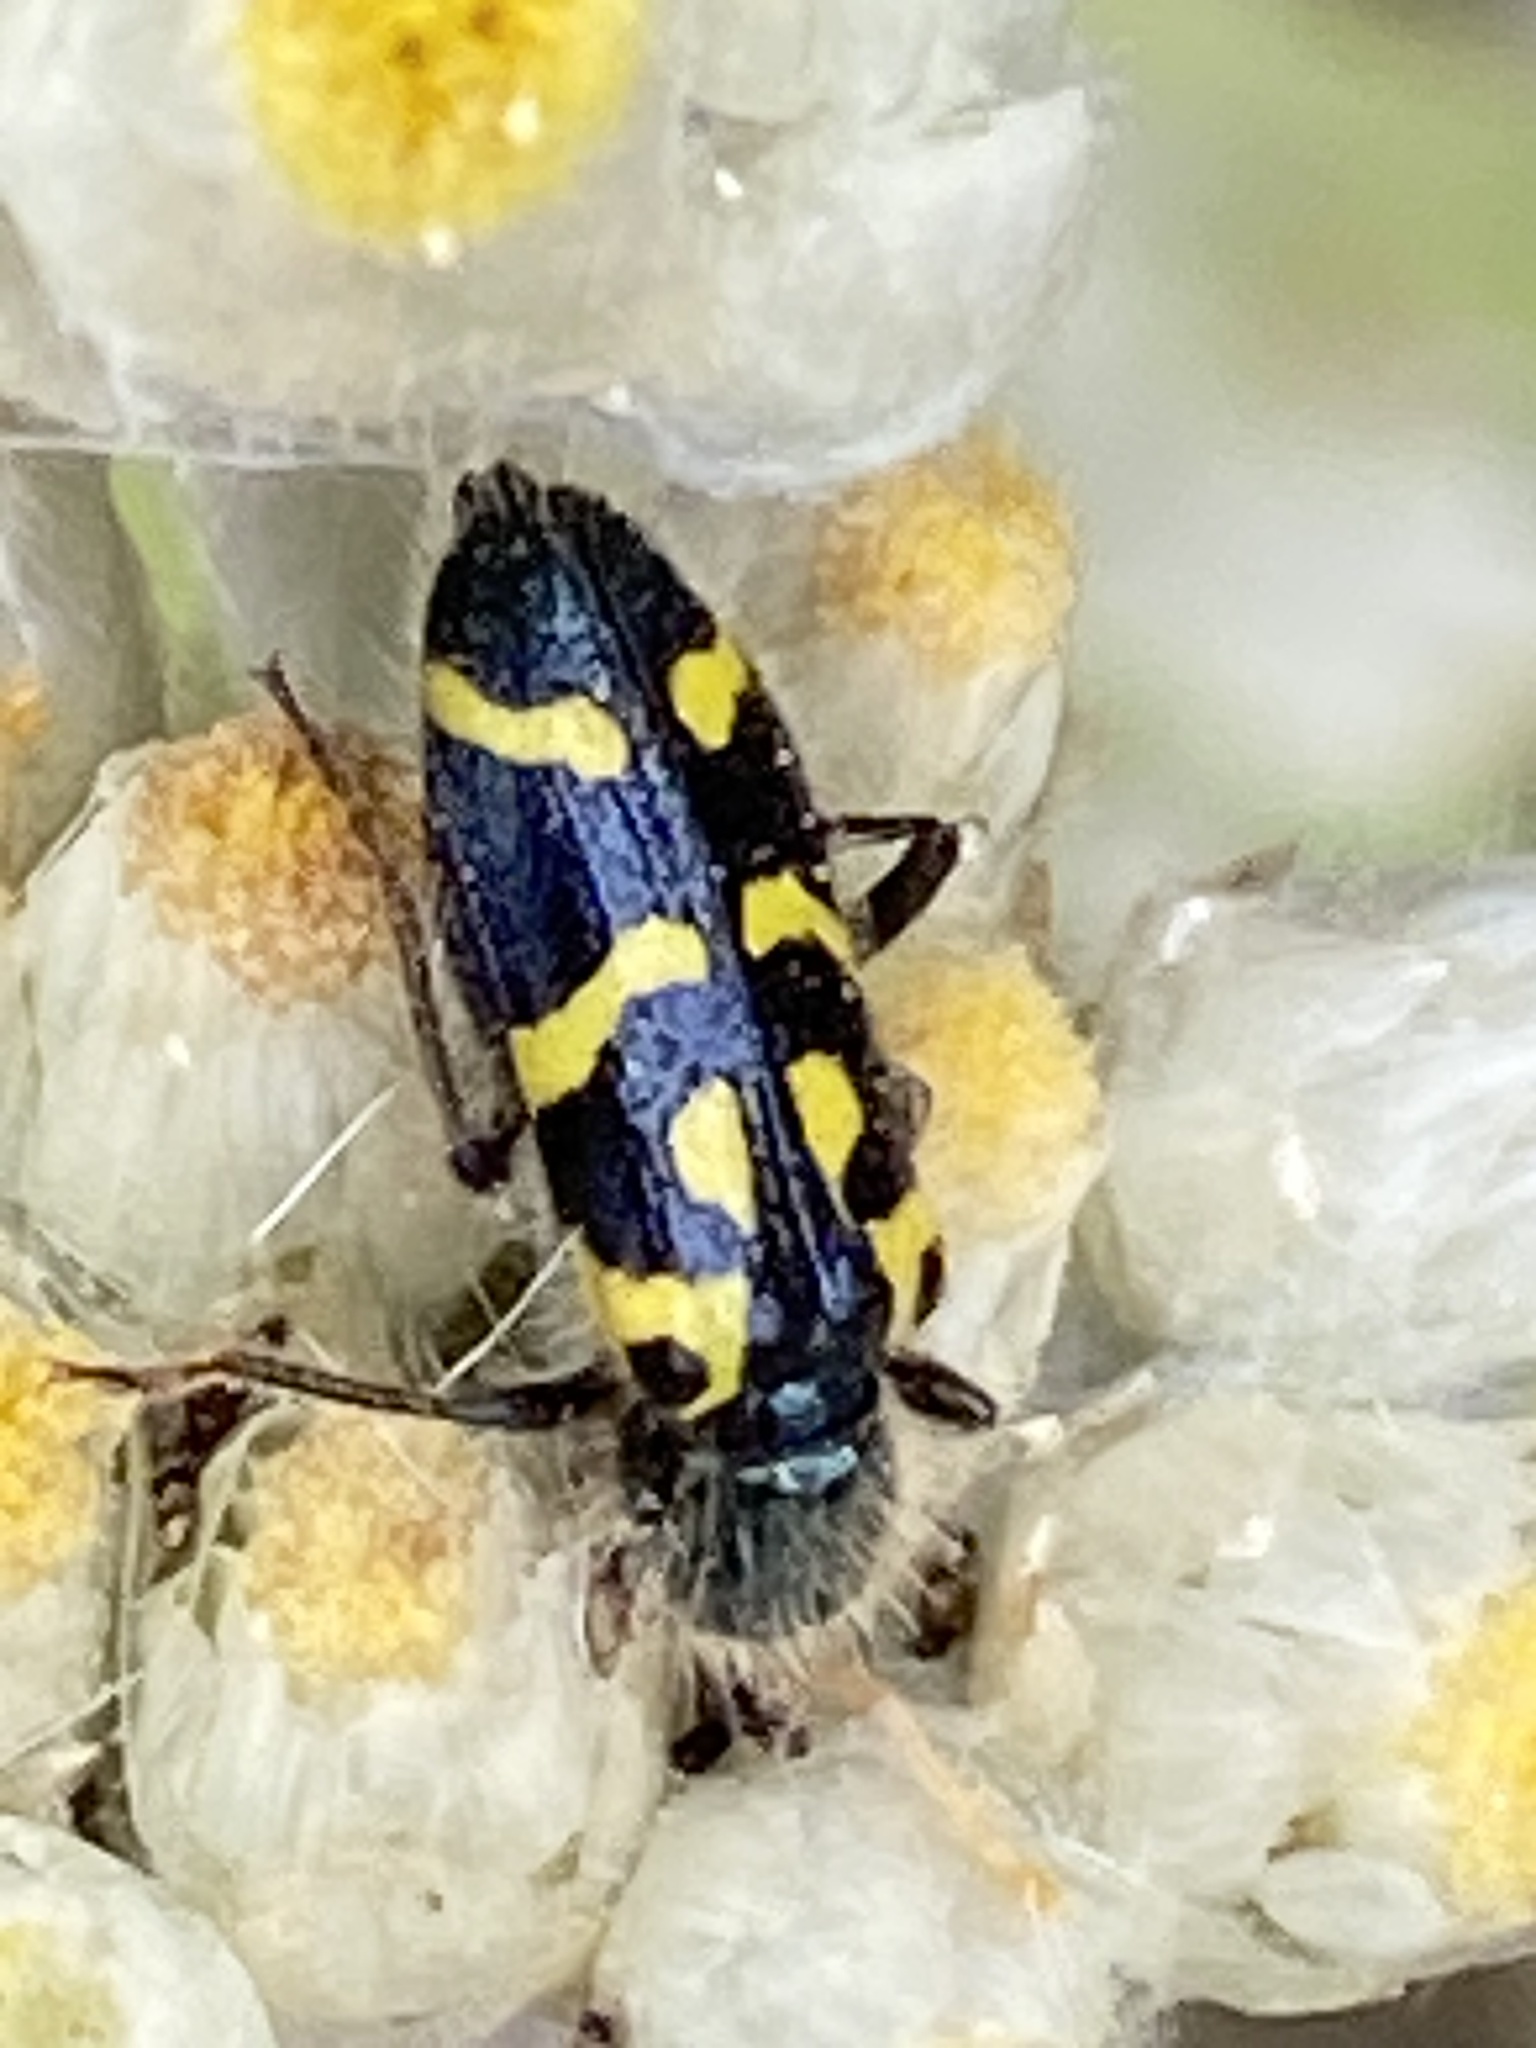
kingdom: Animalia
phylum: Arthropoda
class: Insecta
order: Coleoptera
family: Cleridae
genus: Trichodes
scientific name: Trichodes ornatus
